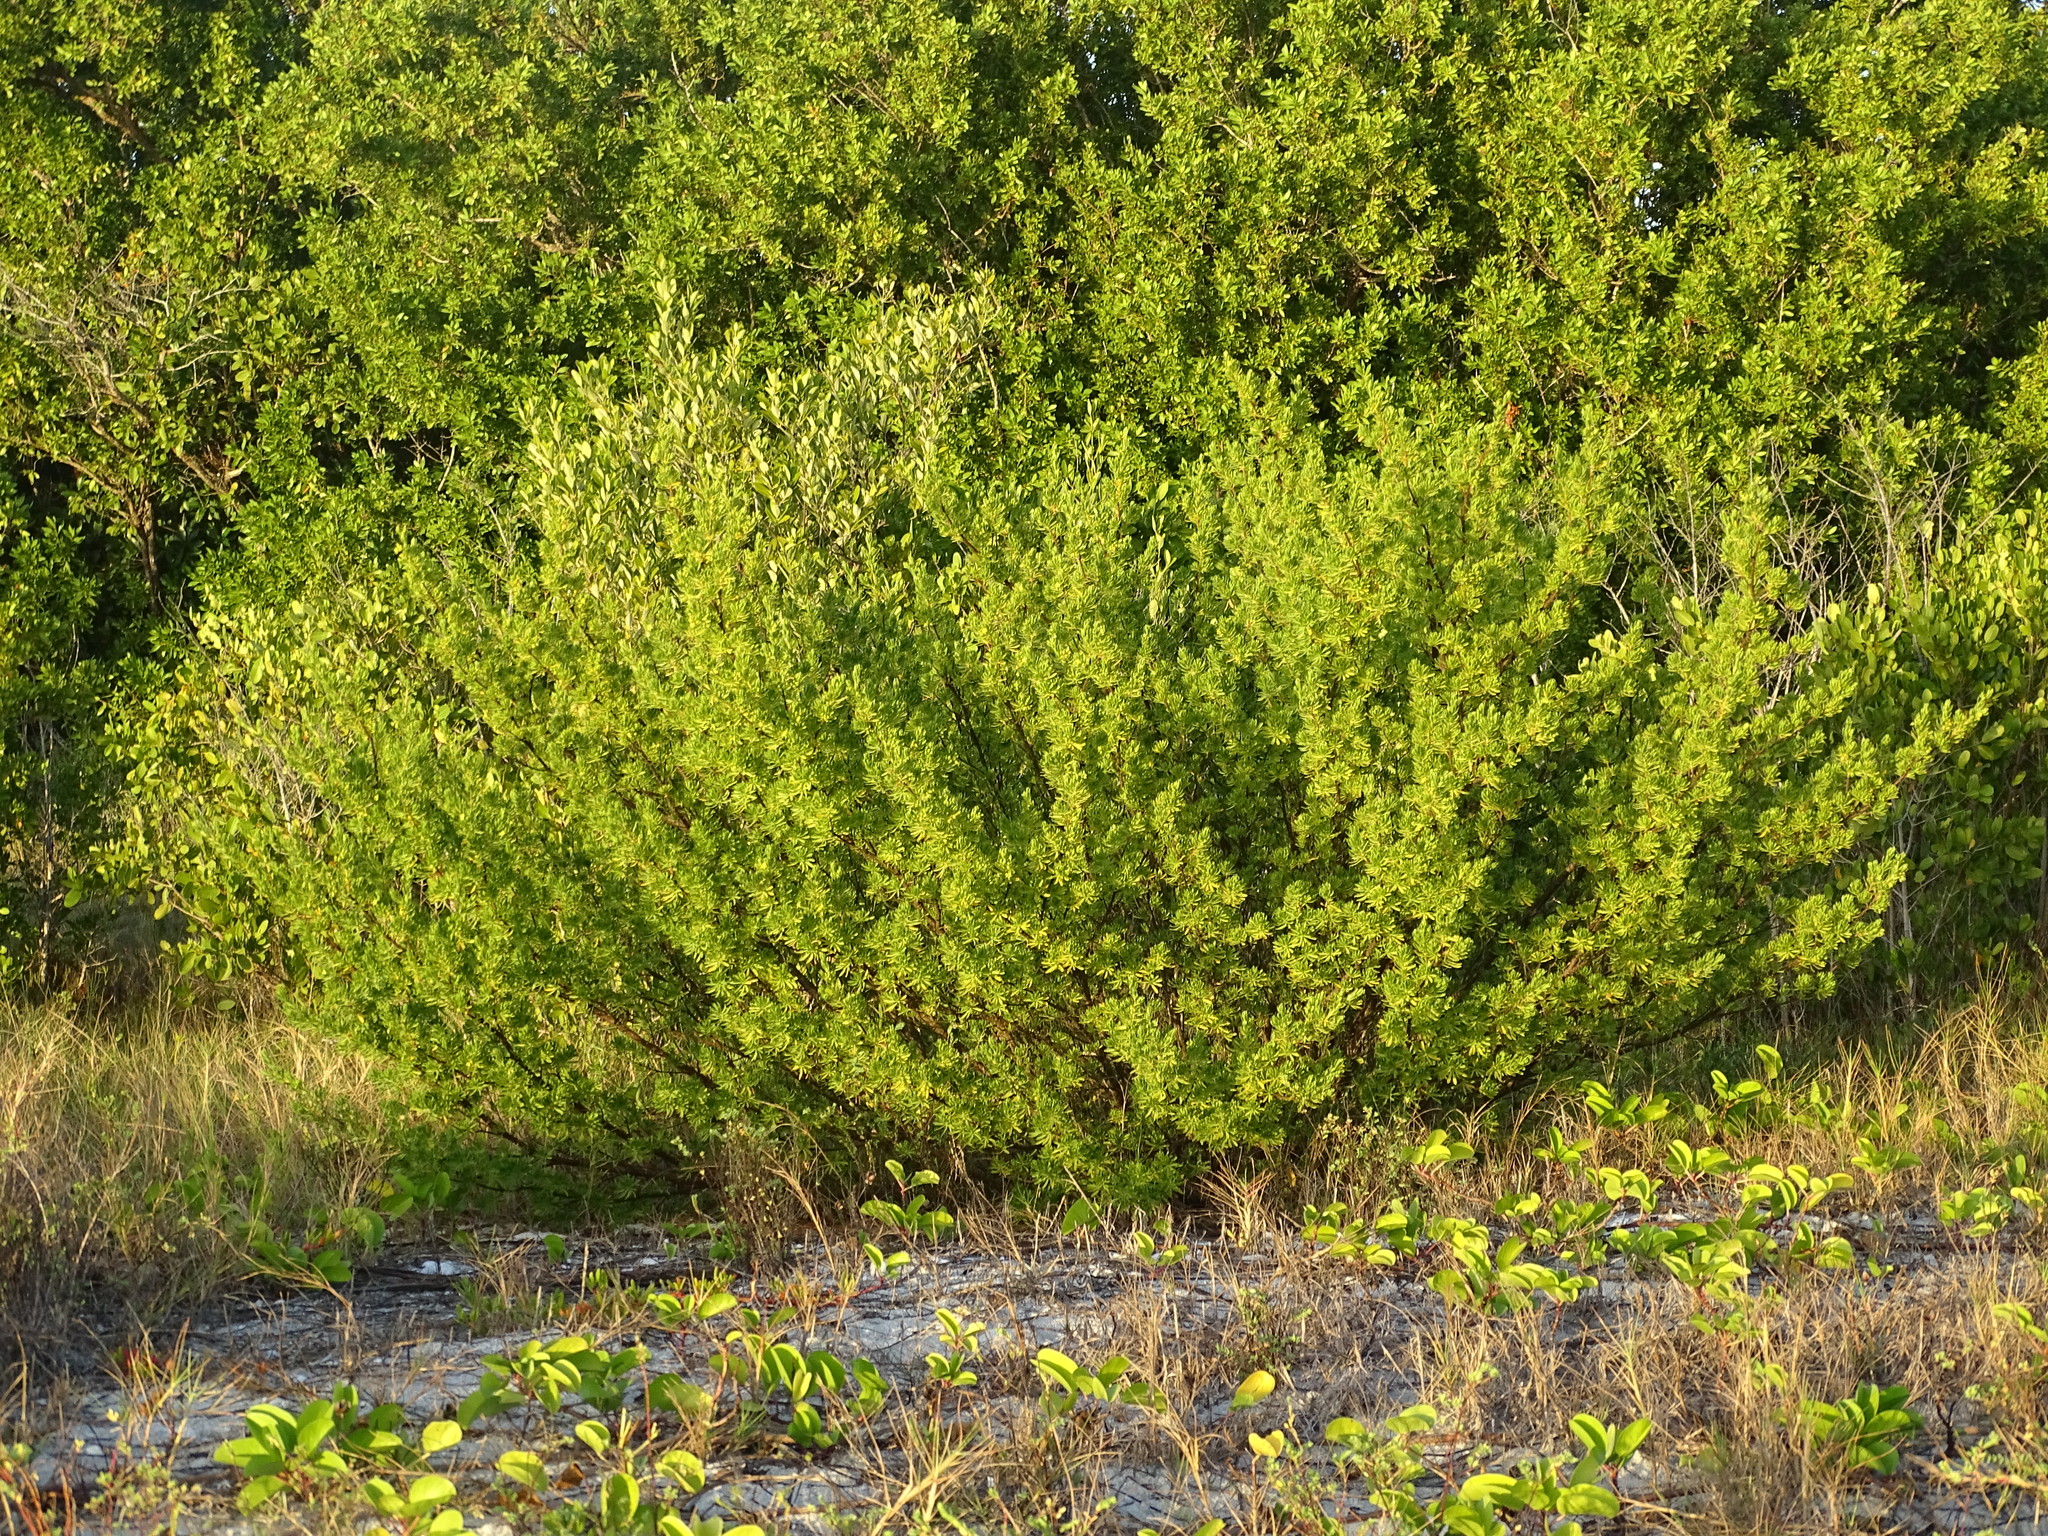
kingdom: Plantae
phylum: Tracheophyta
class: Magnoliopsida
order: Fabales
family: Surianaceae
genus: Suriana
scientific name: Suriana maritima
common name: Bay-cedar
